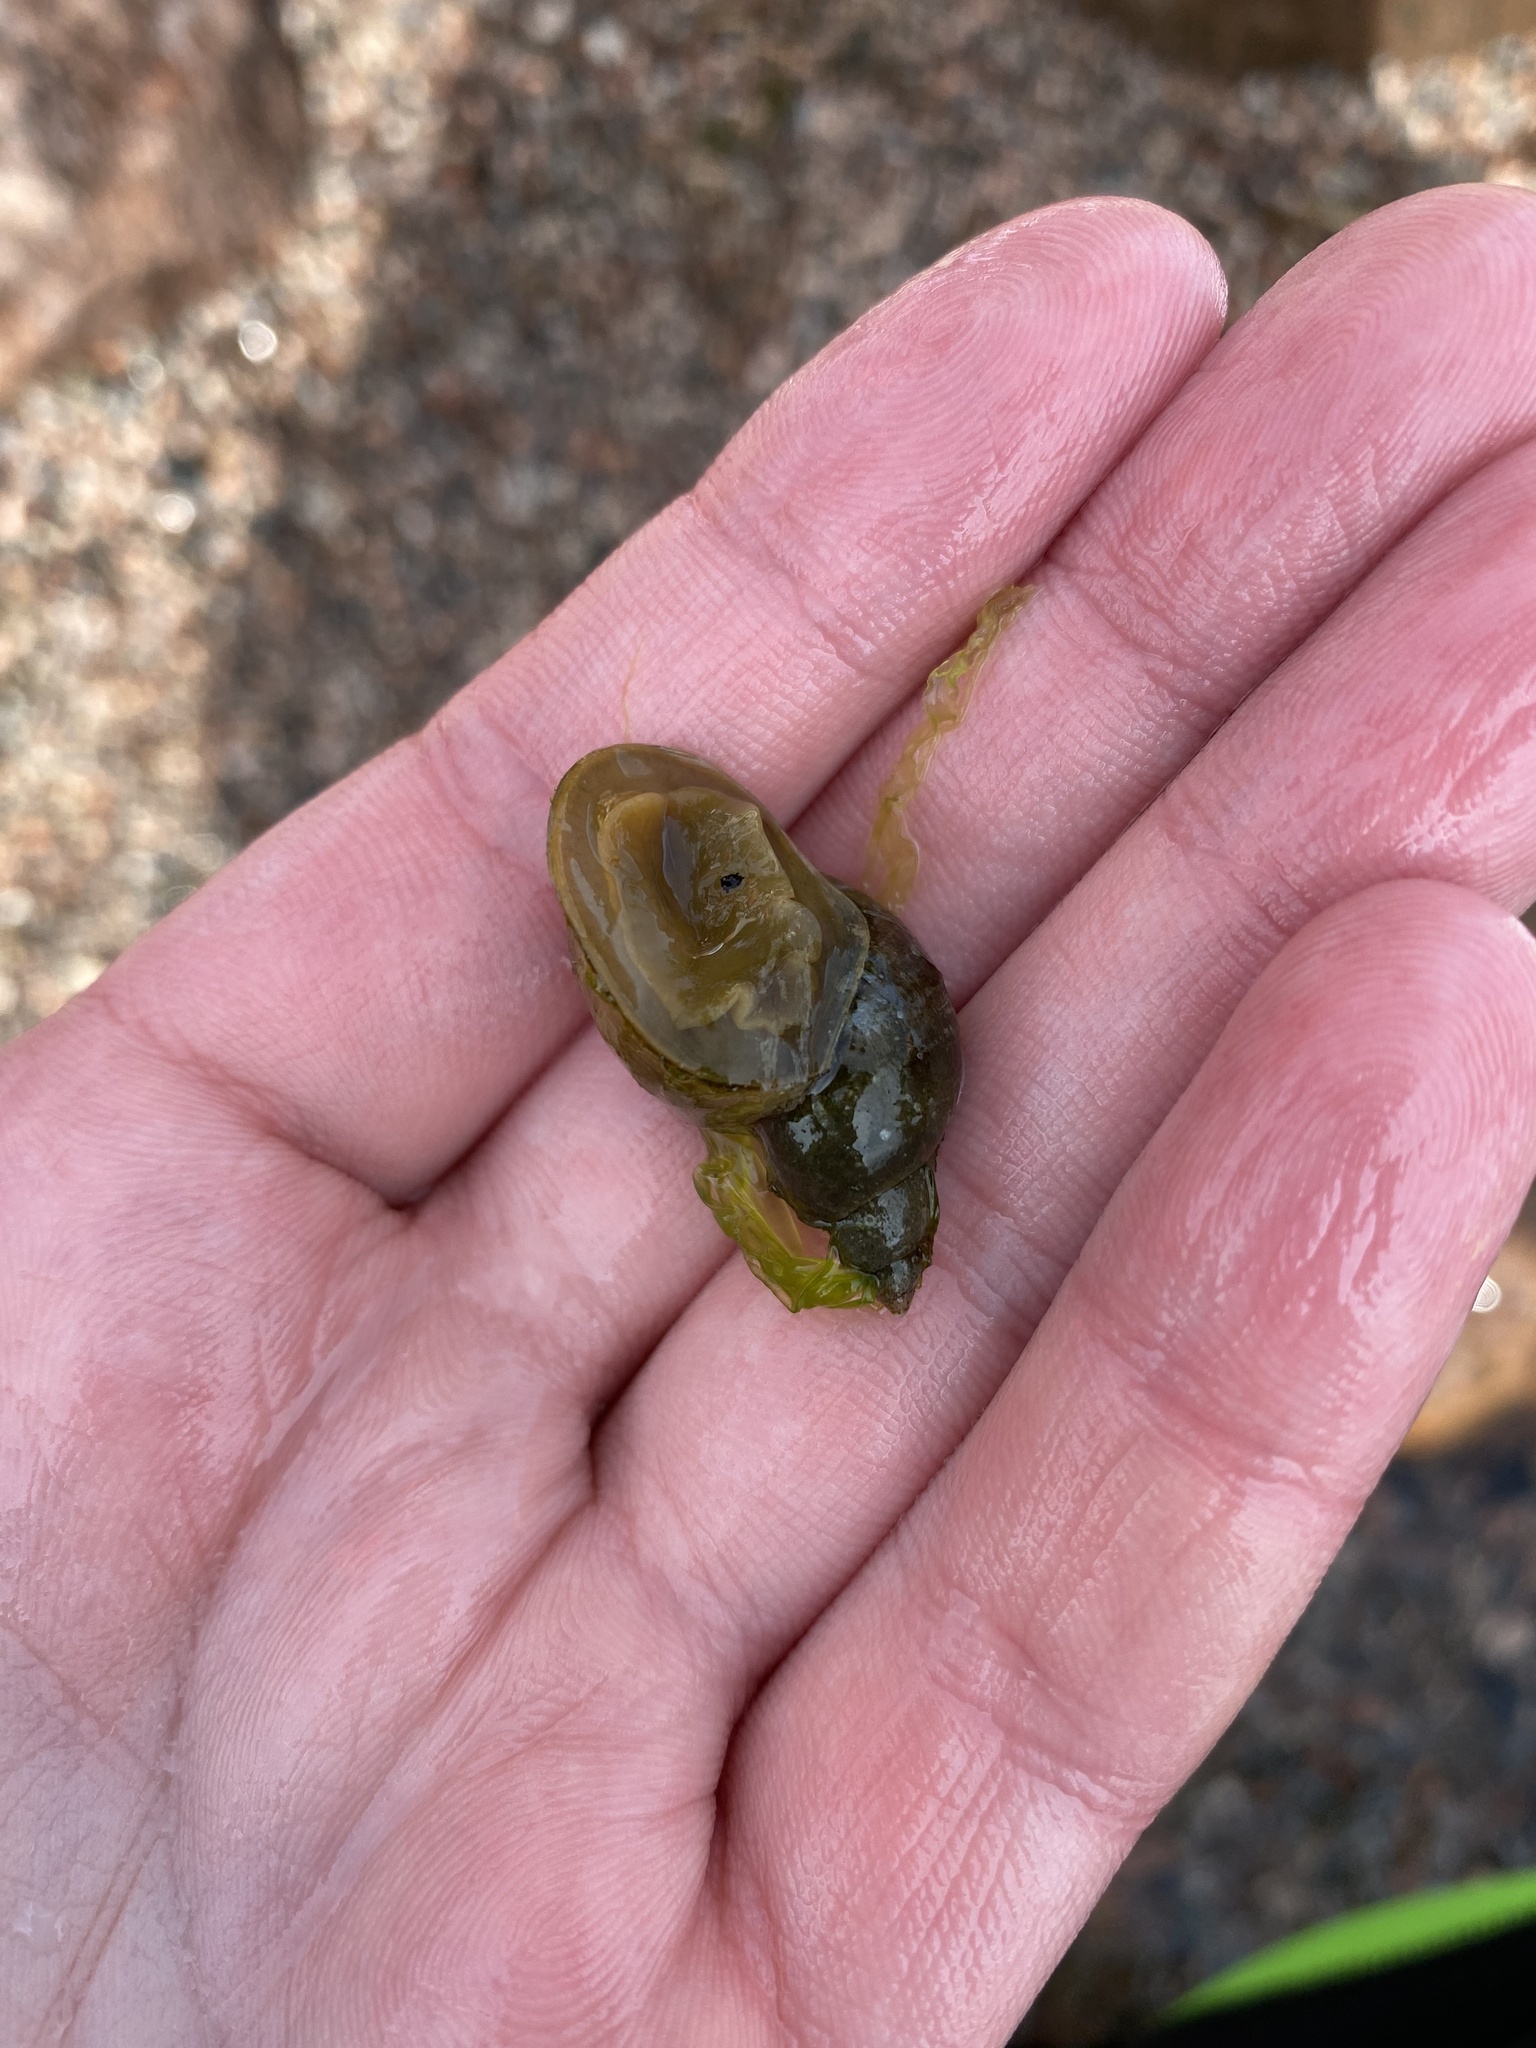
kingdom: Animalia
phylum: Mollusca
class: Gastropoda
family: Lymnaeidae
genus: Lymnaea
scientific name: Lymnaea stagnalis
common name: Great pond snail
